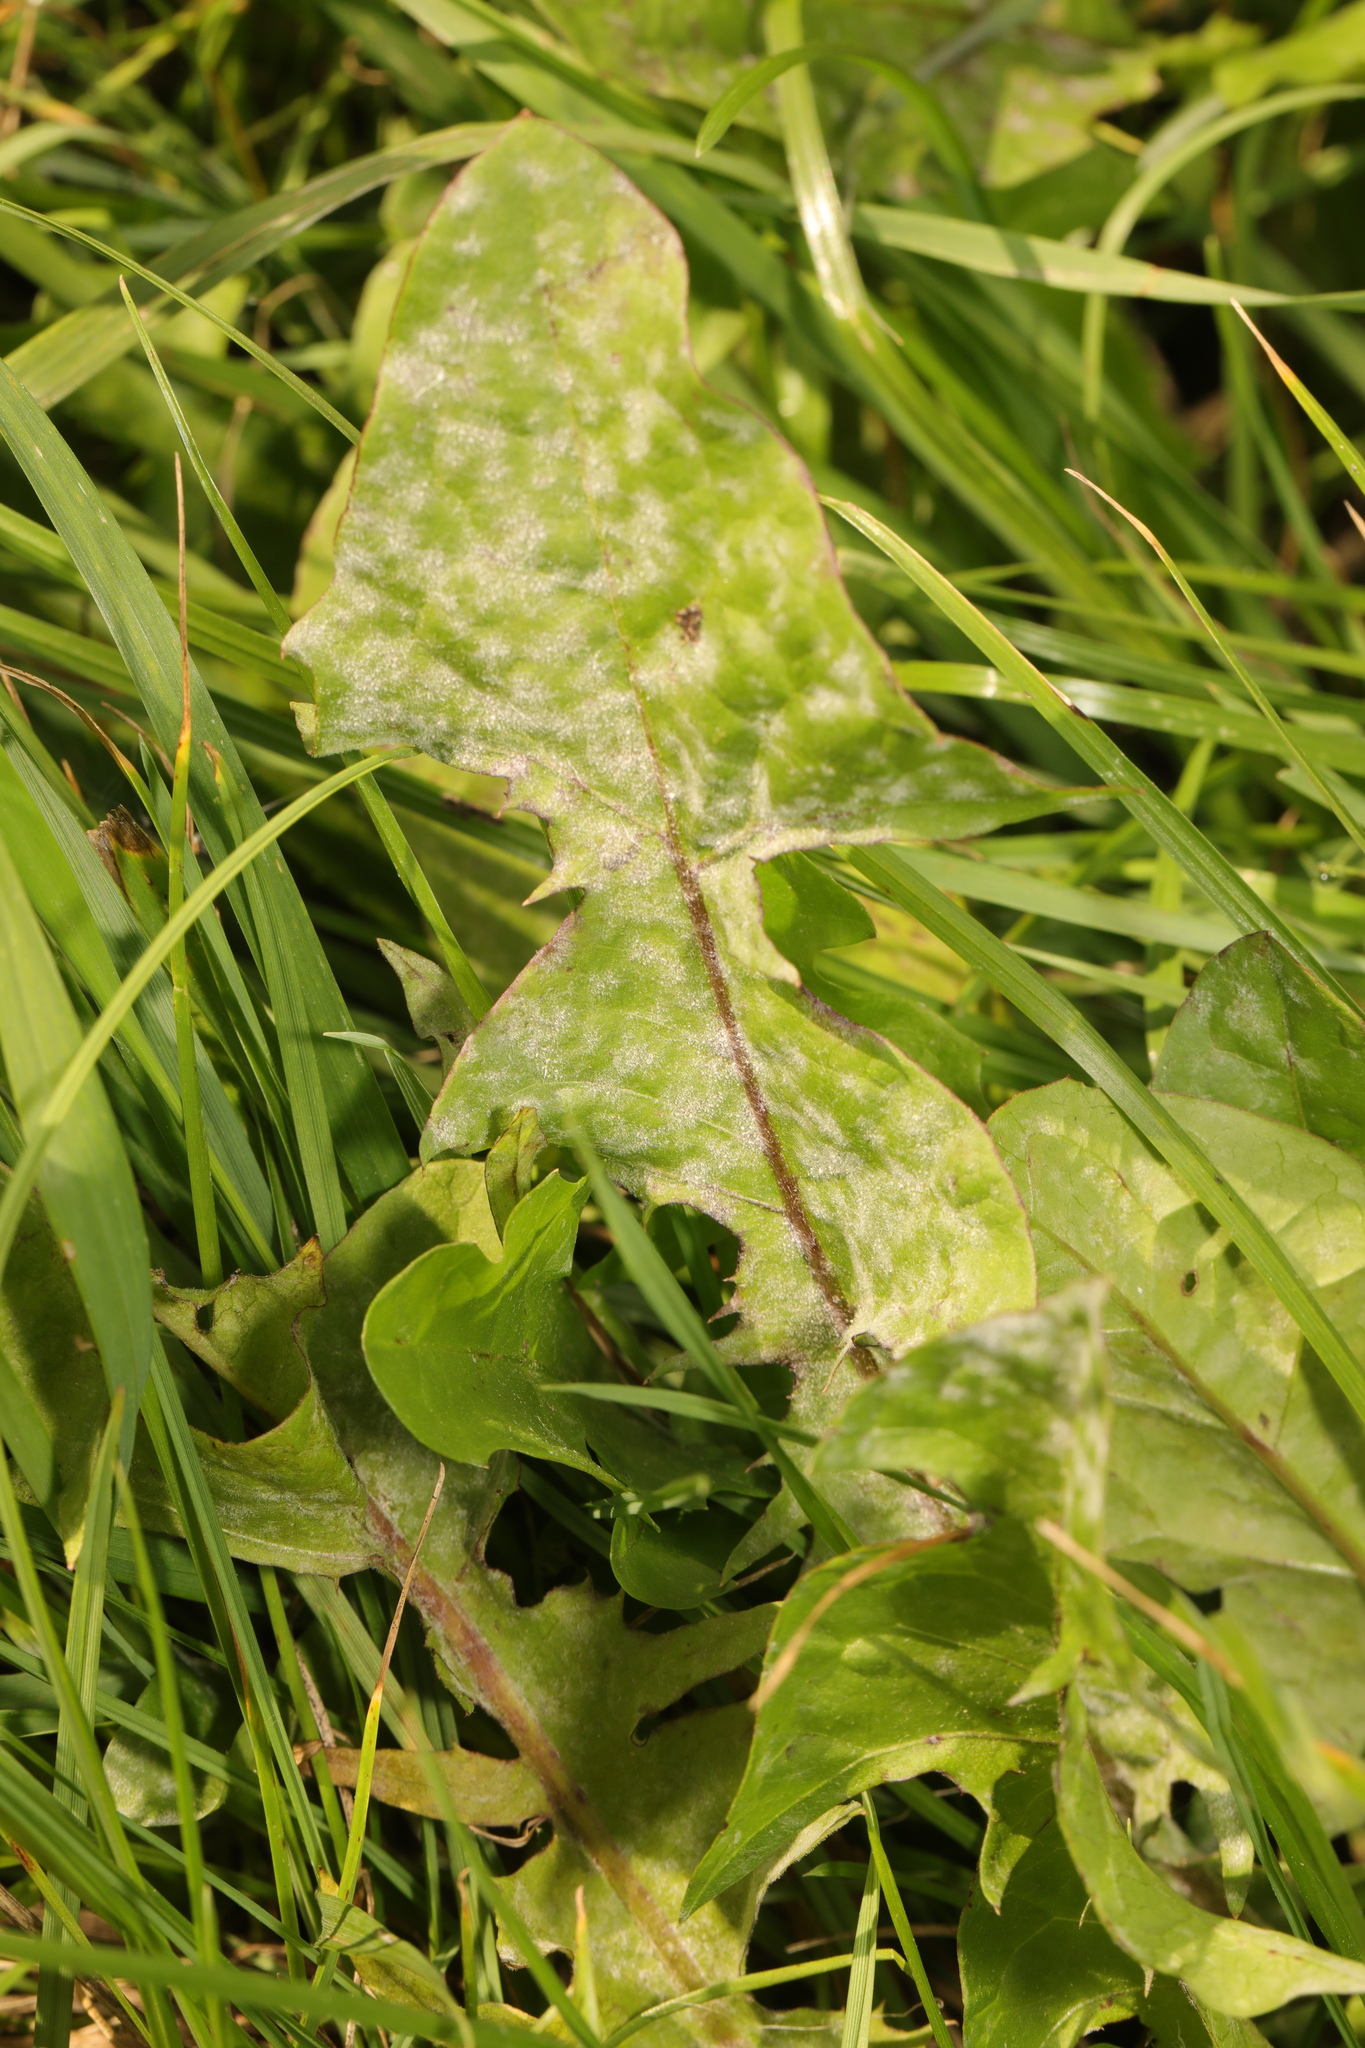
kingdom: Plantae
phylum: Tracheophyta
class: Magnoliopsida
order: Asterales
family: Asteraceae
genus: Taraxacum
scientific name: Taraxacum officinale
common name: Common dandelion
